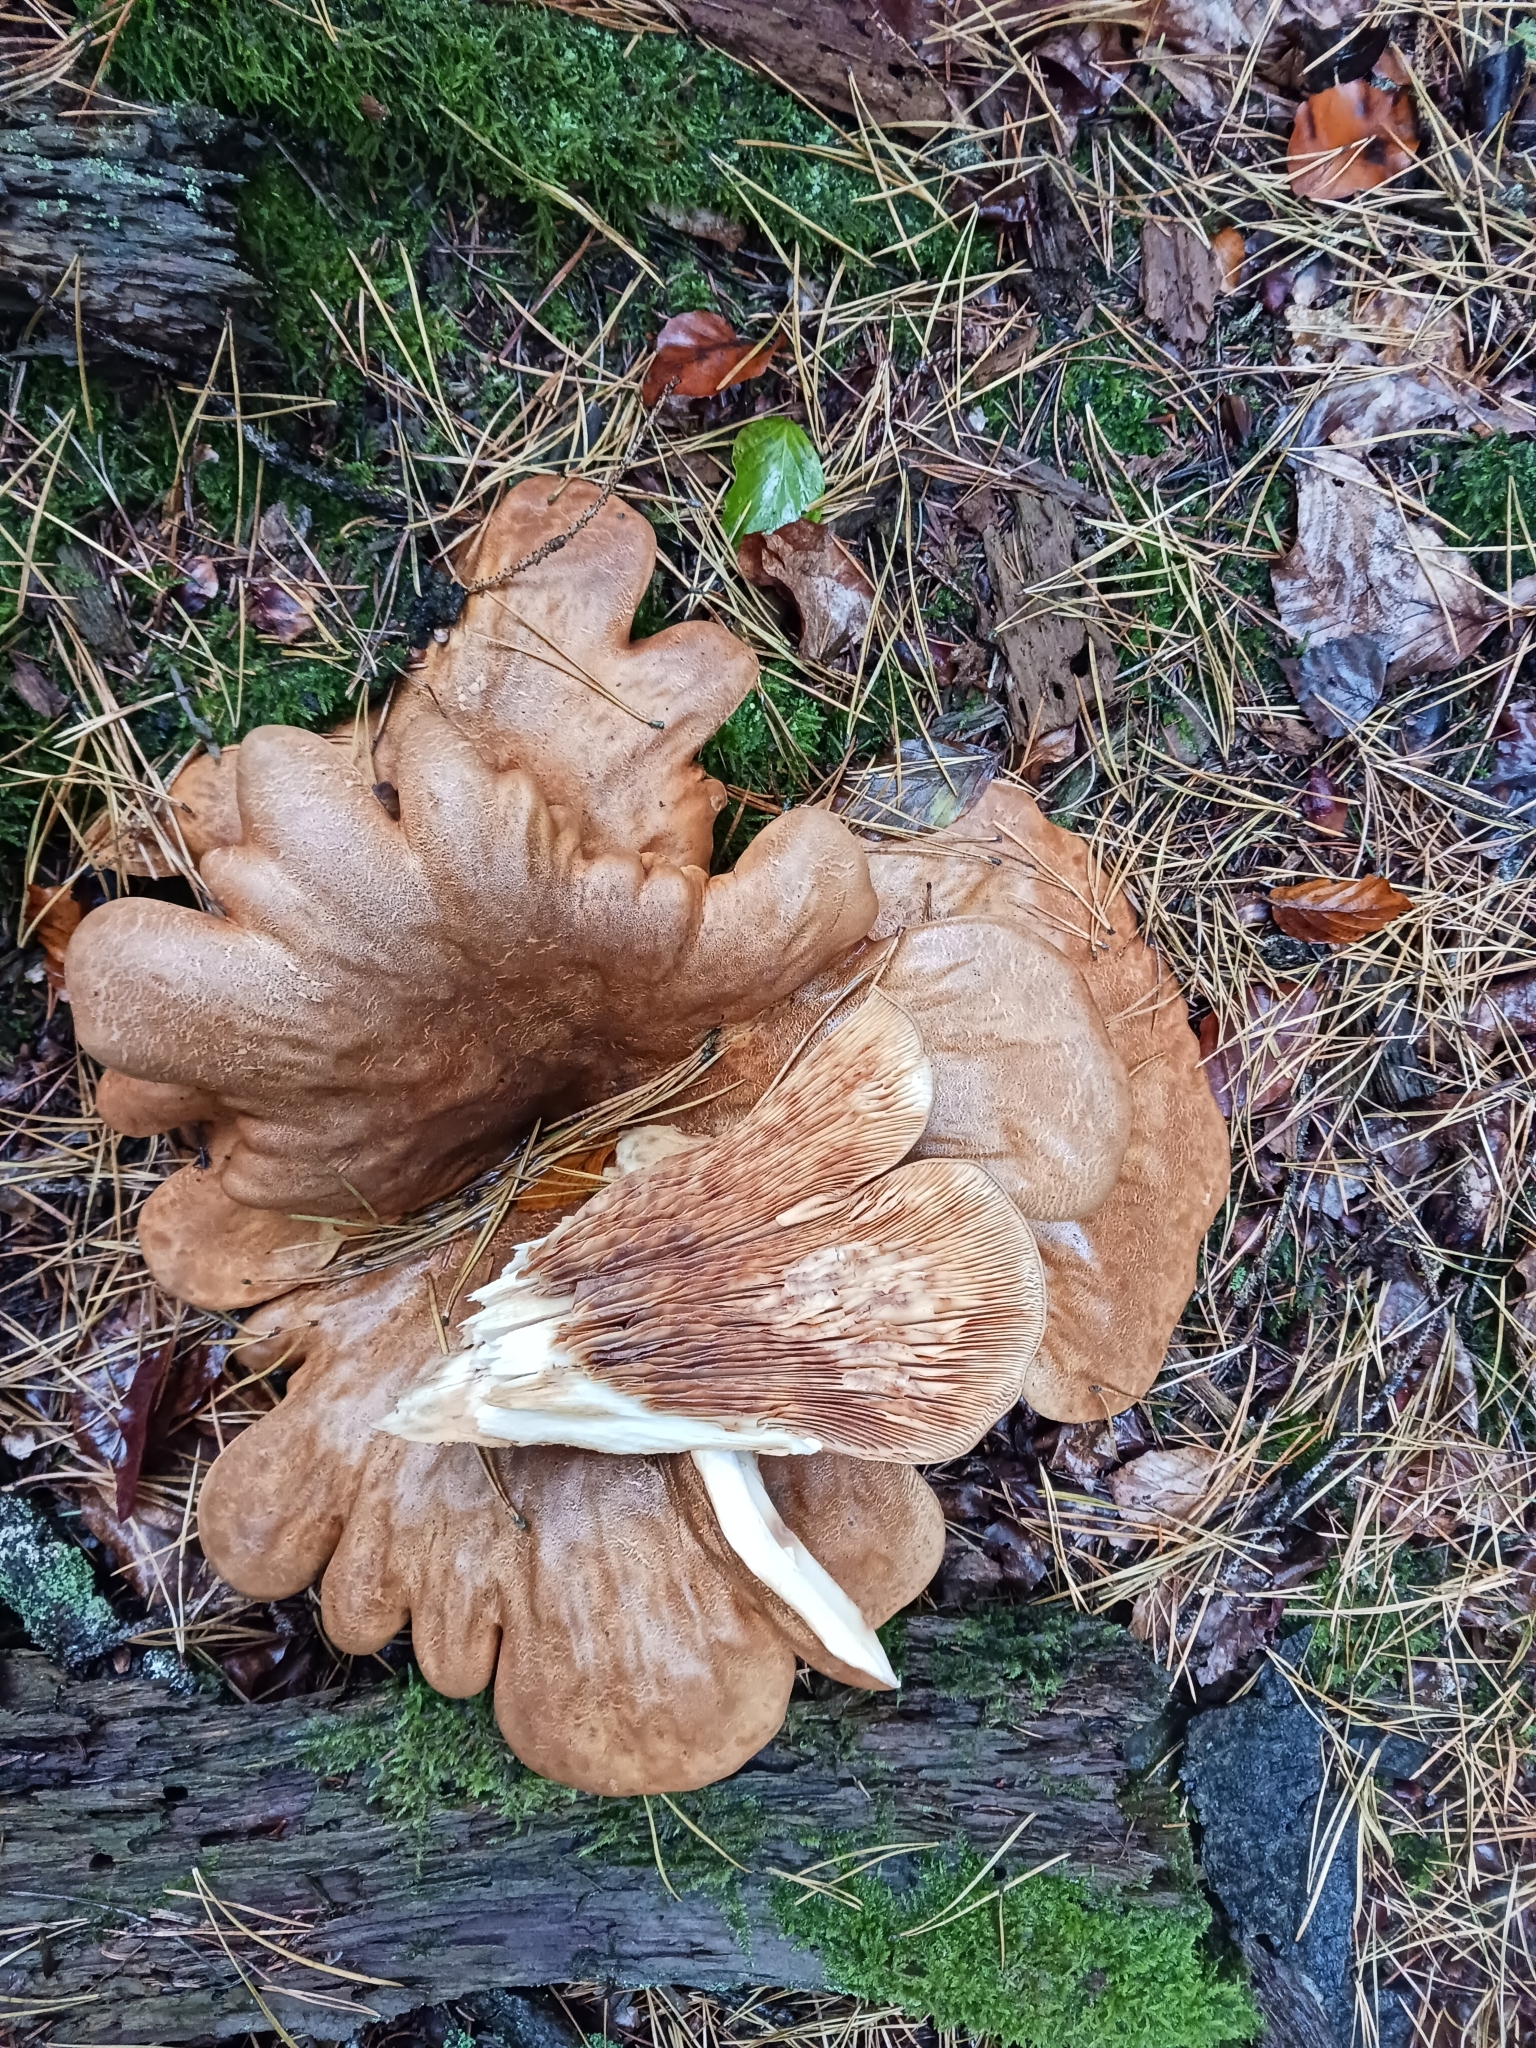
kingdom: Fungi
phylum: Basidiomycota
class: Agaricomycetes
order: Boletales
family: Tapinellaceae
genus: Tapinella
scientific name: Tapinella atrotomentosa
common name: Velvet rollrim
